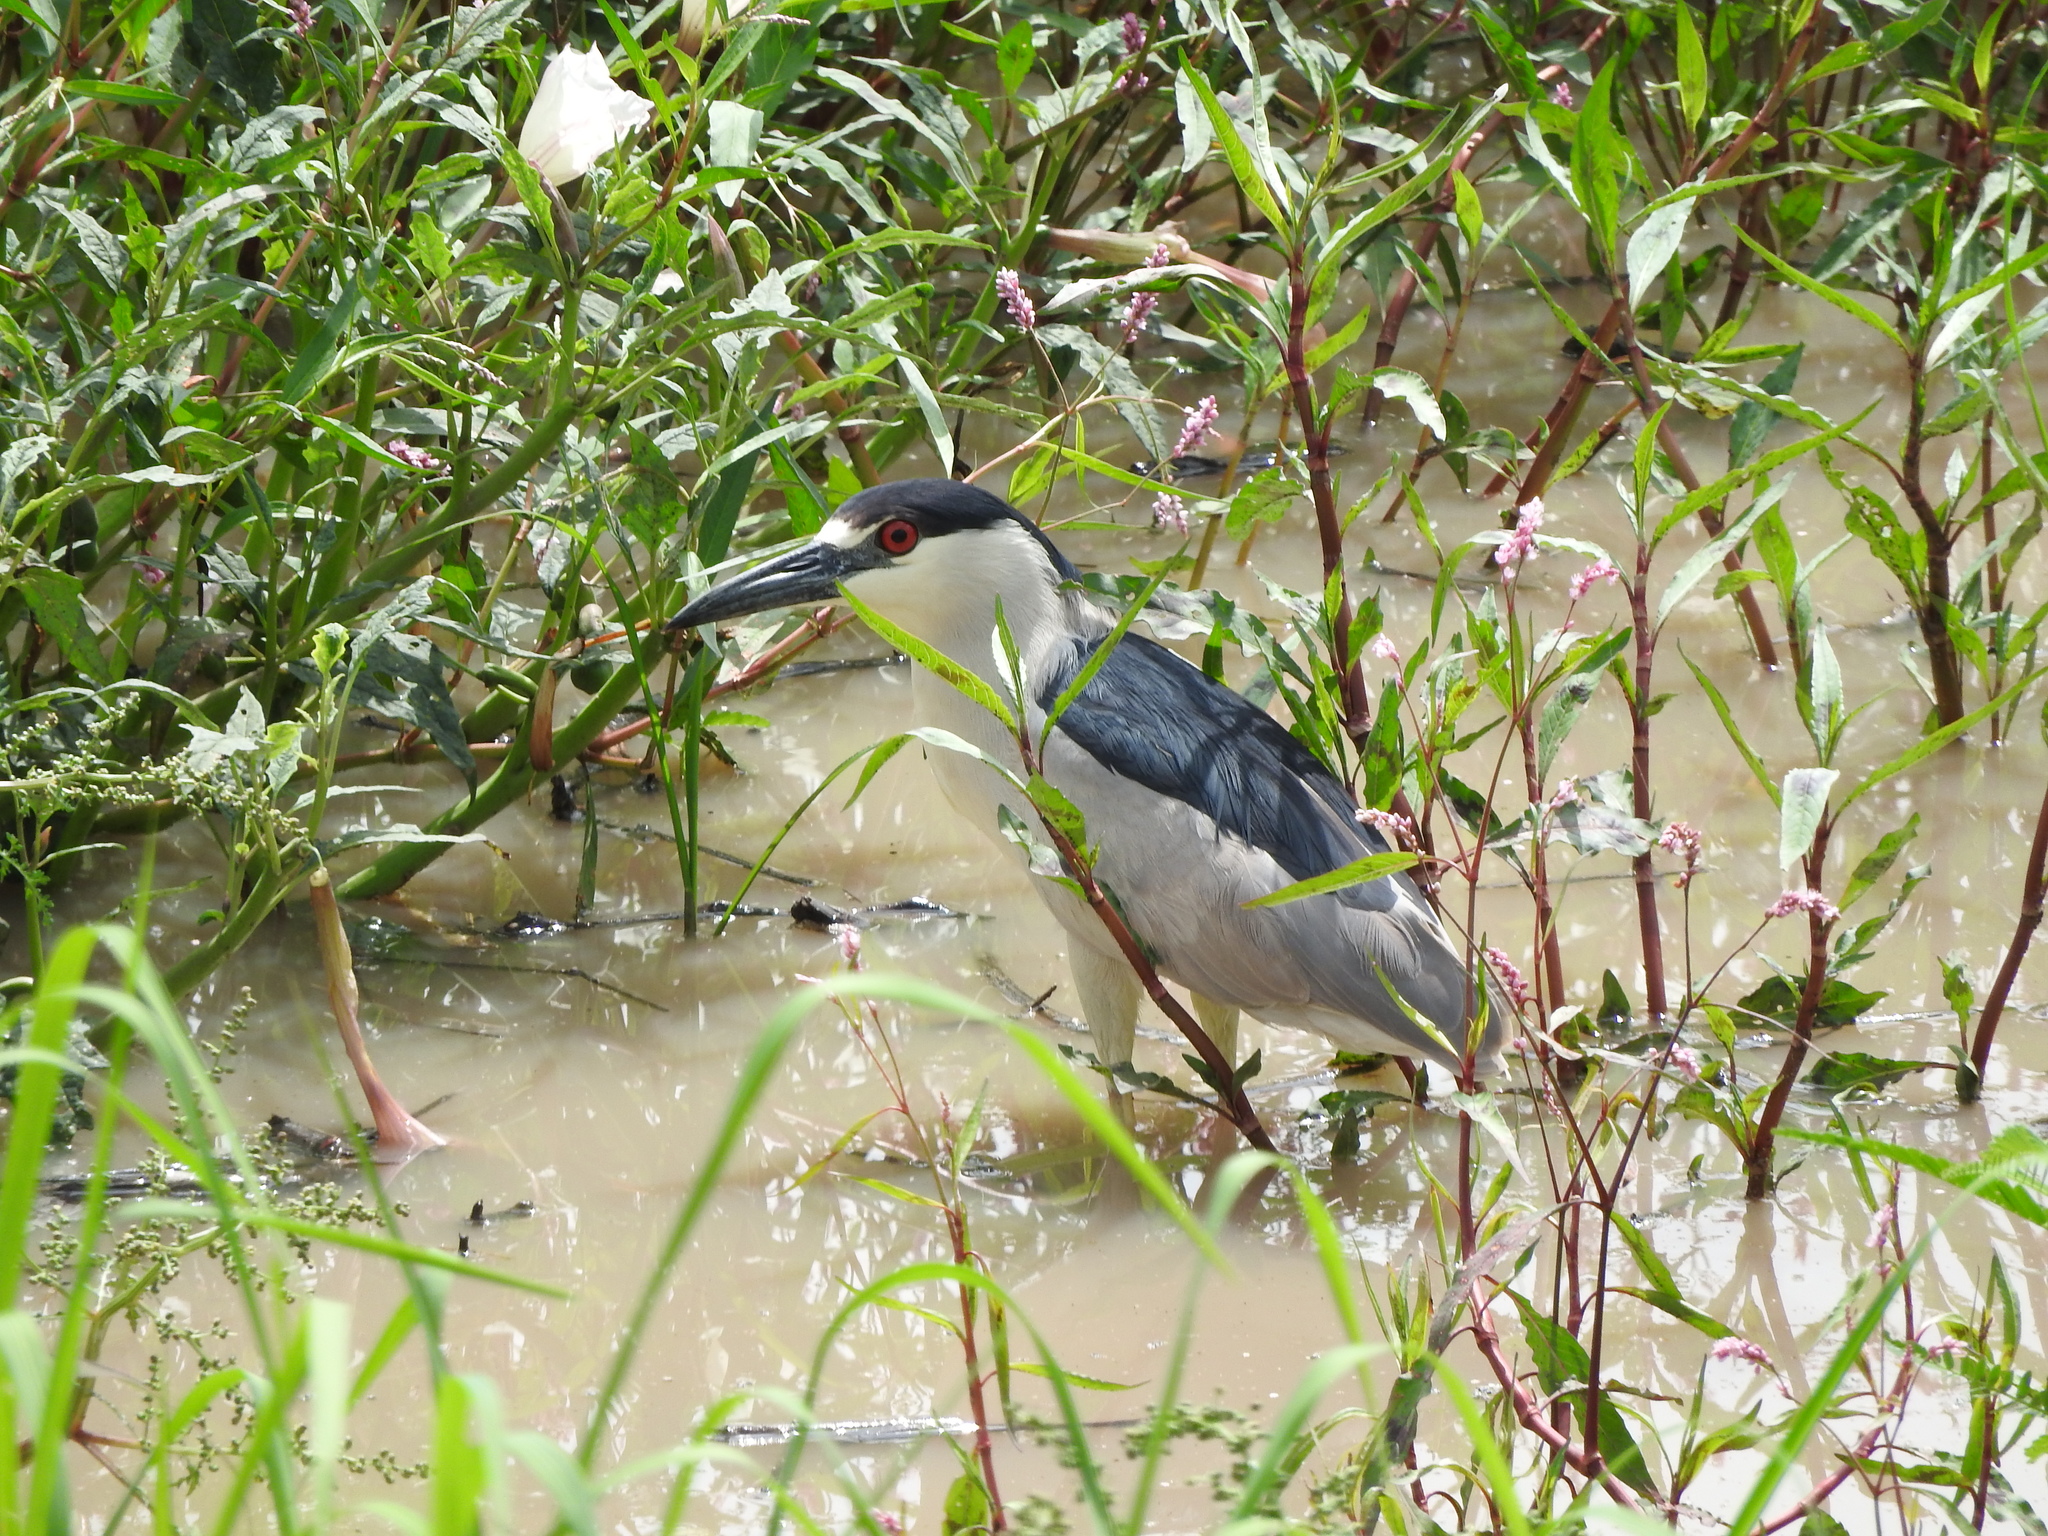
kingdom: Animalia
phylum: Chordata
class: Aves
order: Pelecaniformes
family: Ardeidae
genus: Nycticorax
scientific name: Nycticorax nycticorax
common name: Black-crowned night heron
